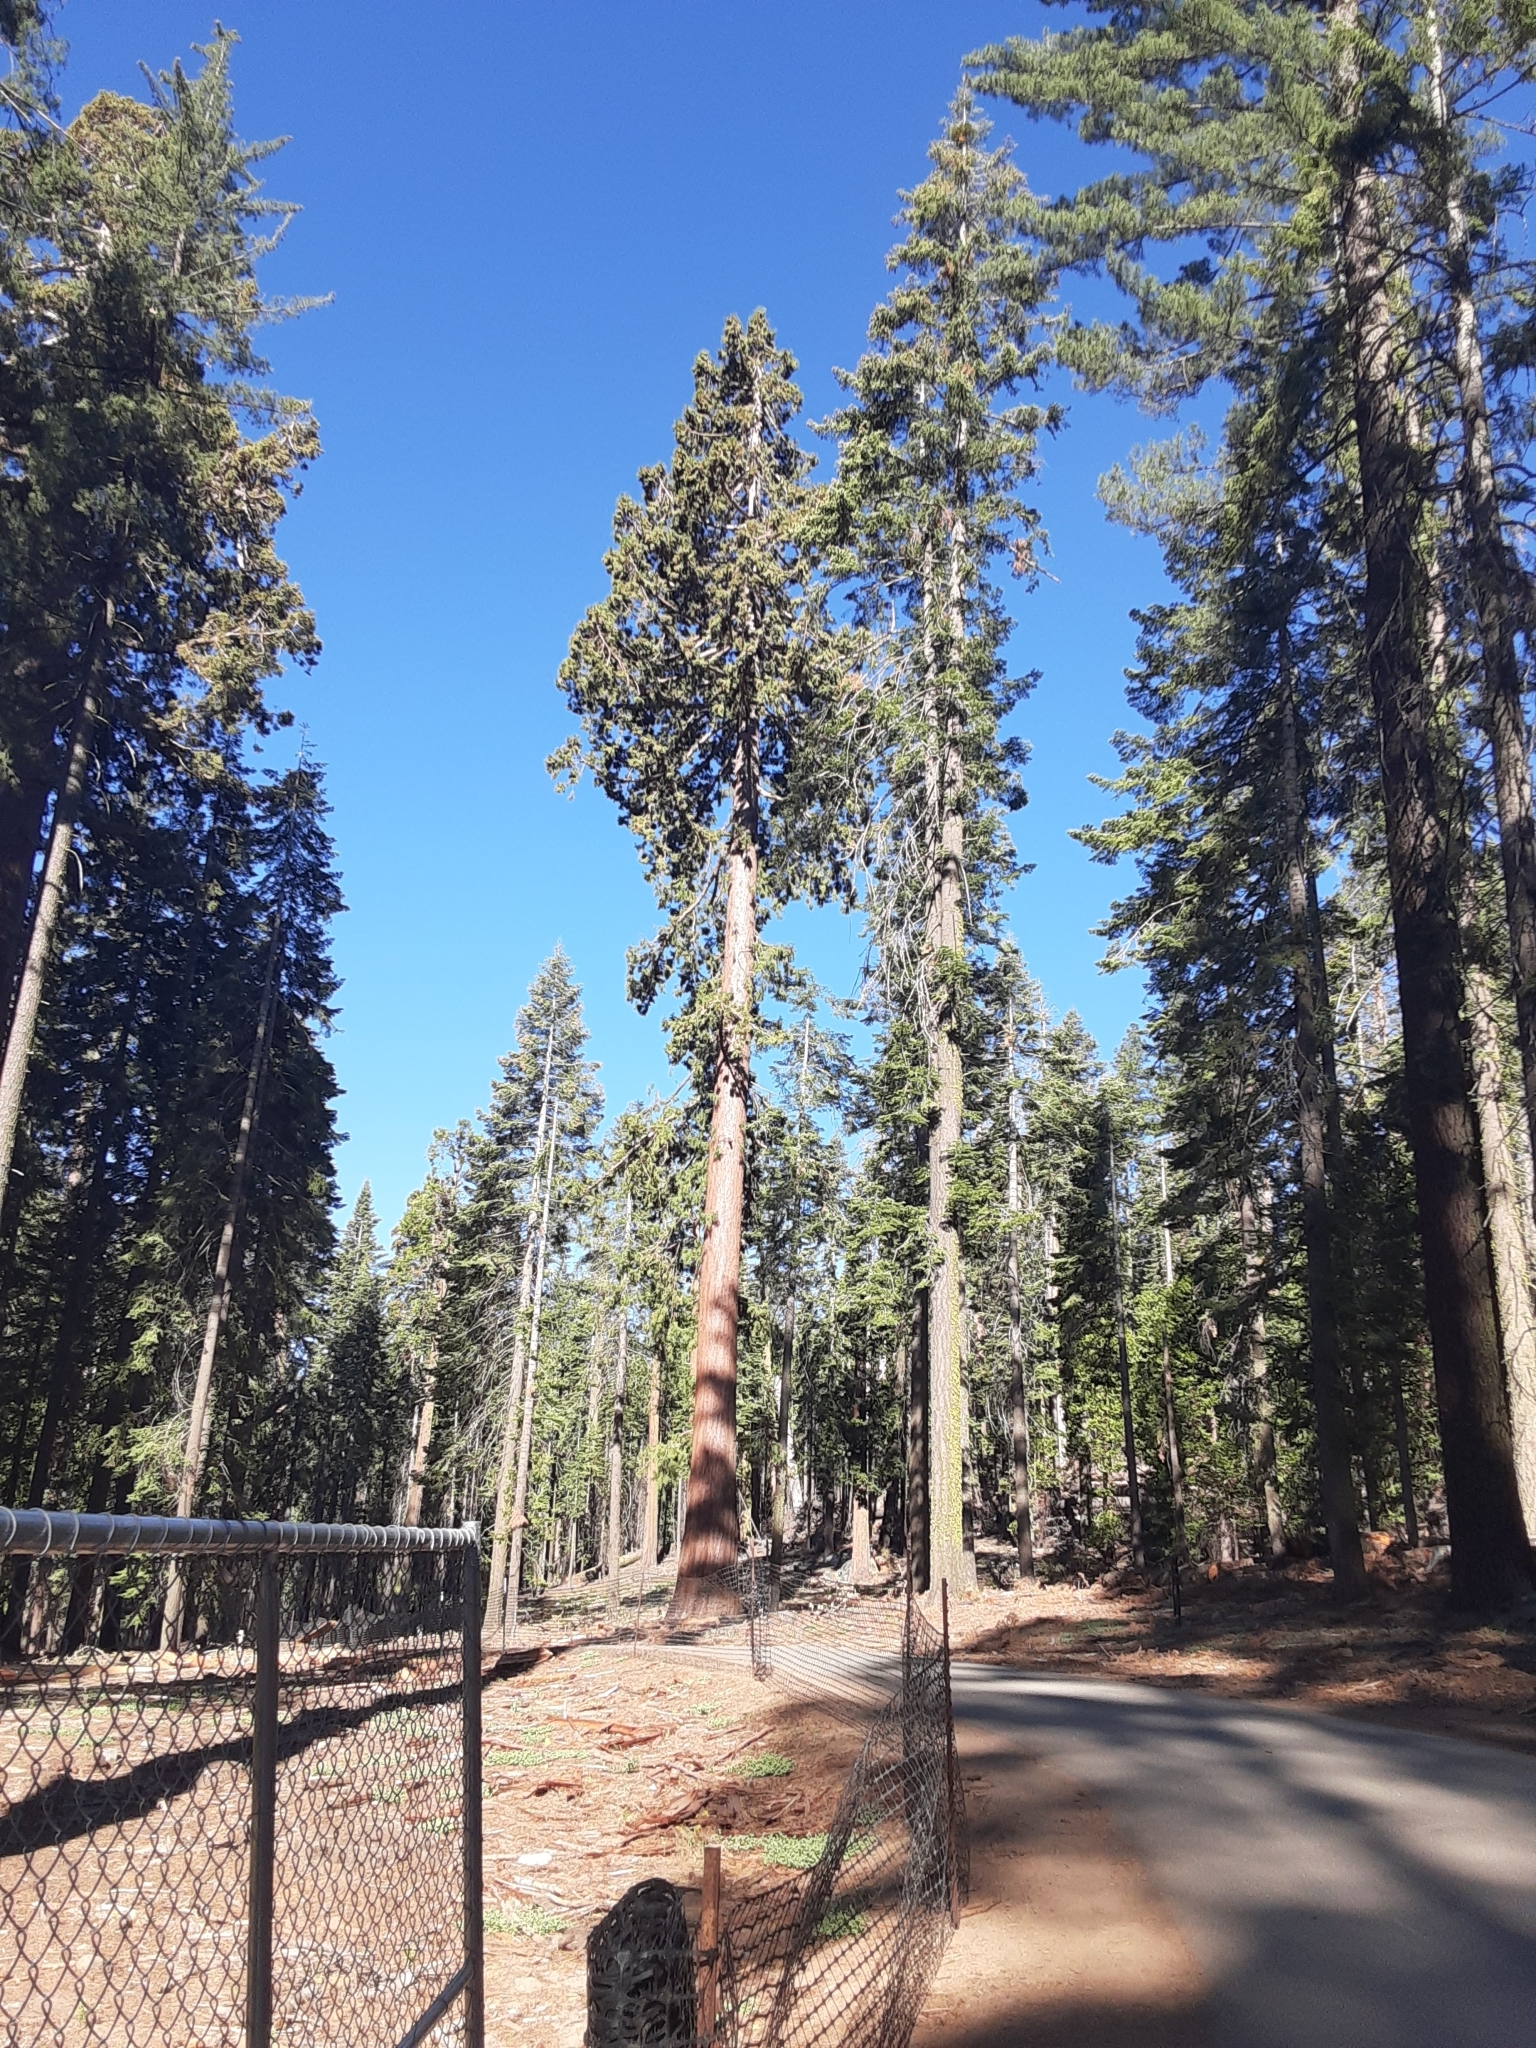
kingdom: Plantae
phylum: Tracheophyta
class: Pinopsida
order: Pinales
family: Cupressaceae
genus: Sequoiadendron
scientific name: Sequoiadendron giganteum
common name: Wellingtonia
